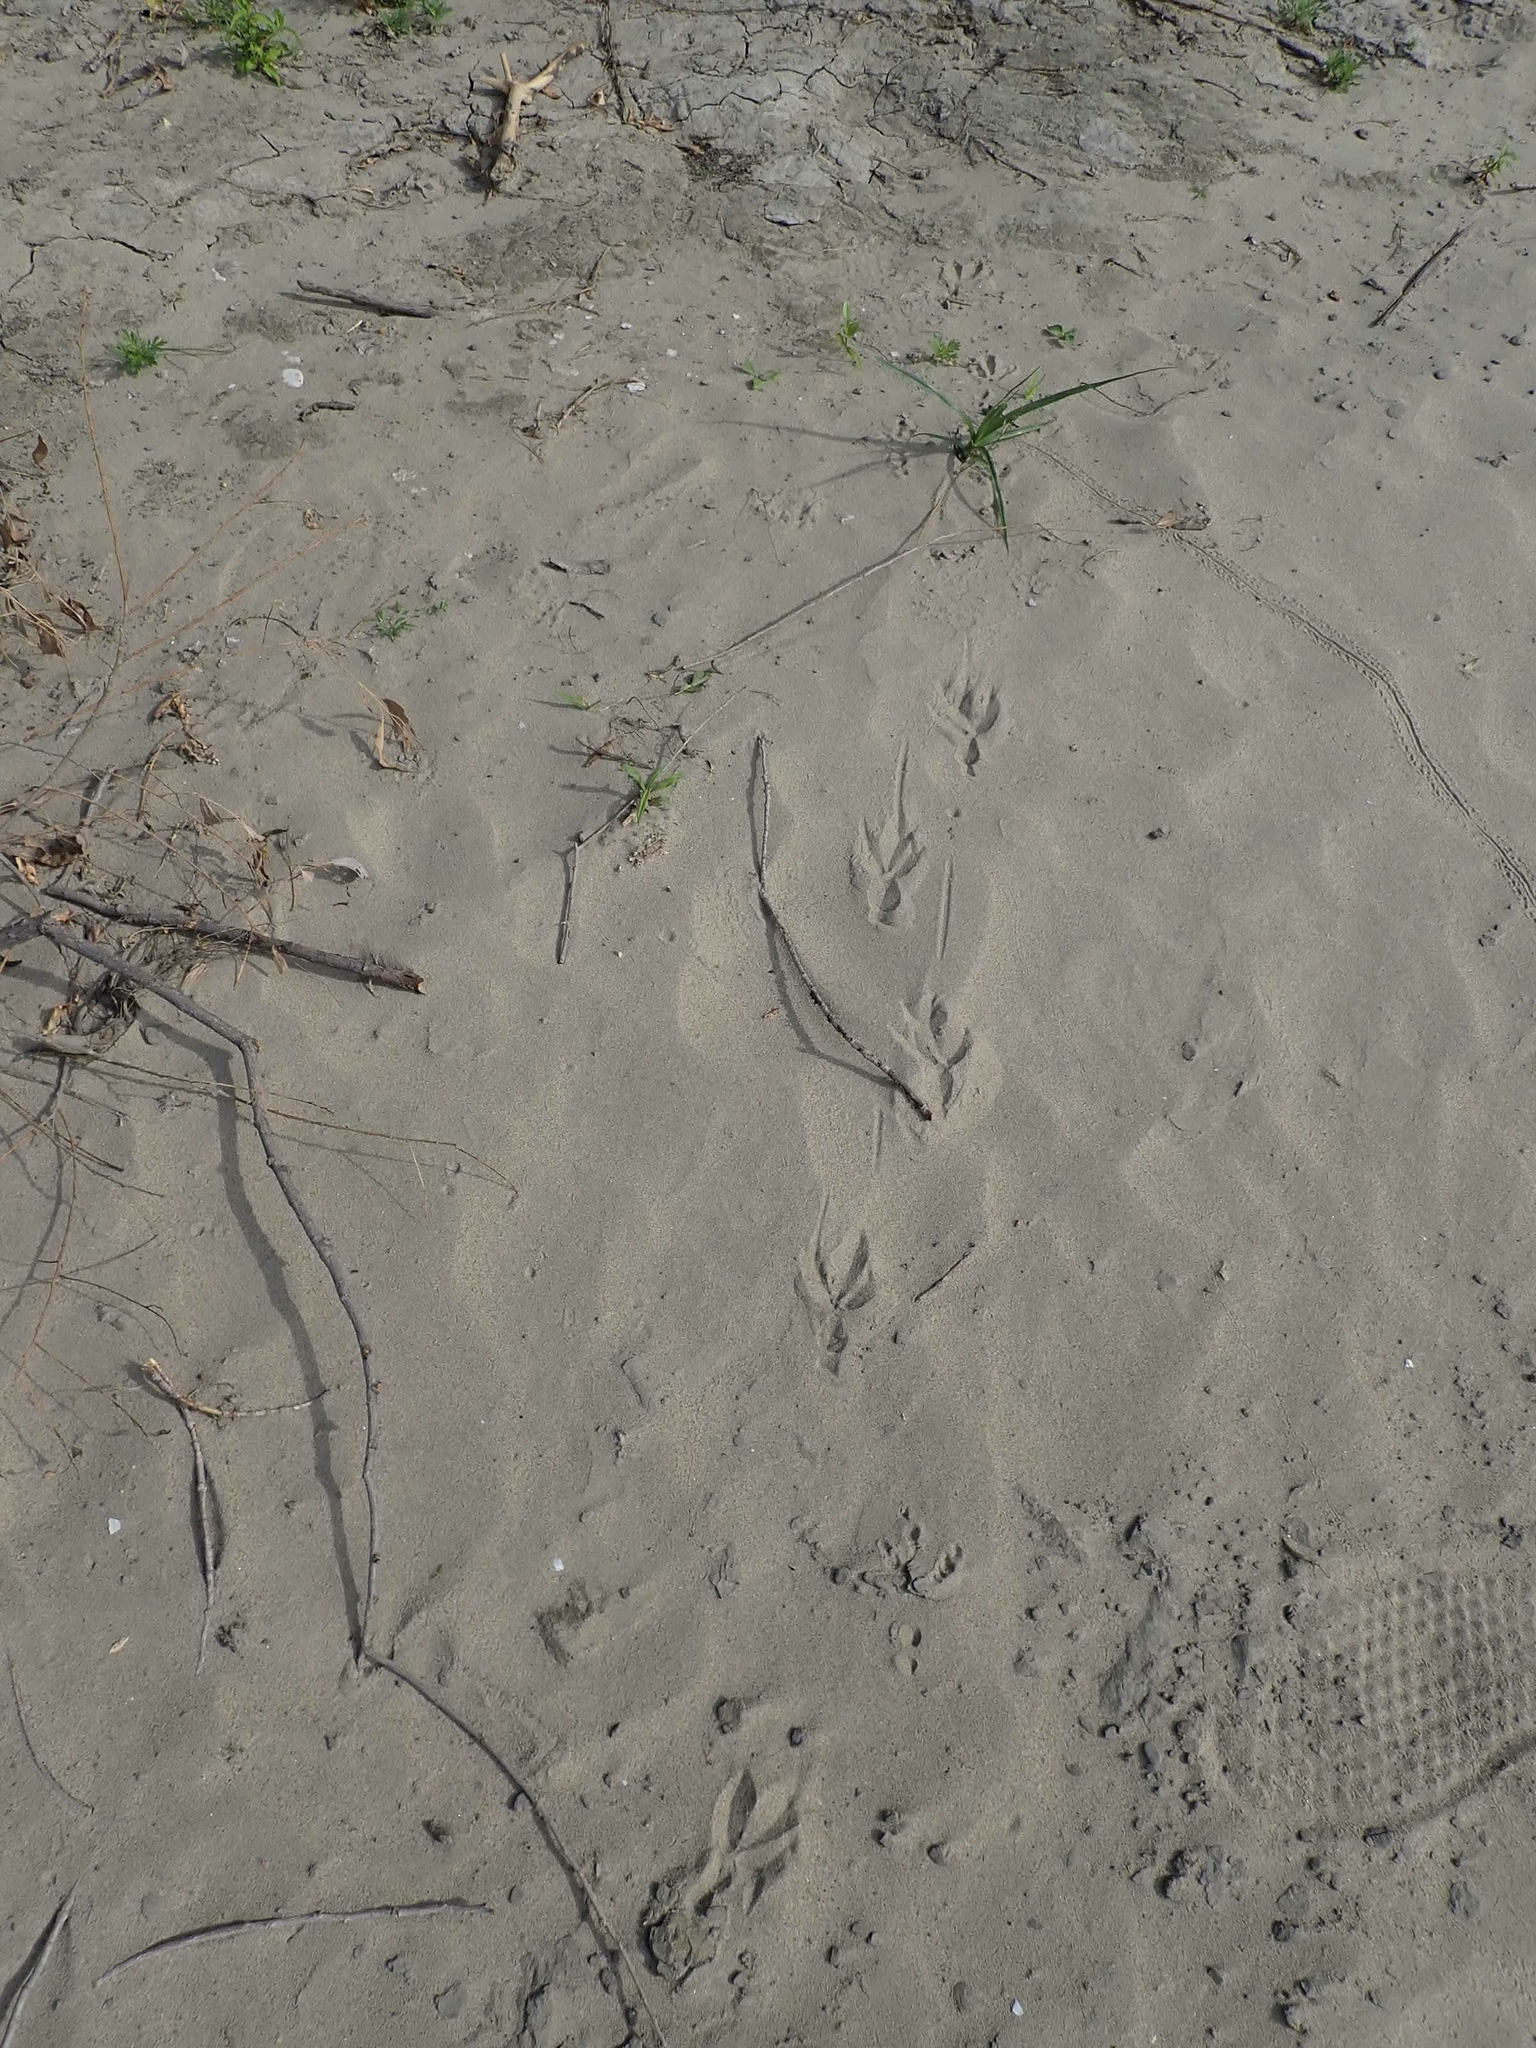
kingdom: Animalia
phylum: Chordata
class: Aves
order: Passeriformes
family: Corvidae
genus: Corvus
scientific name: Corvus brachyrhynchos
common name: American crow
